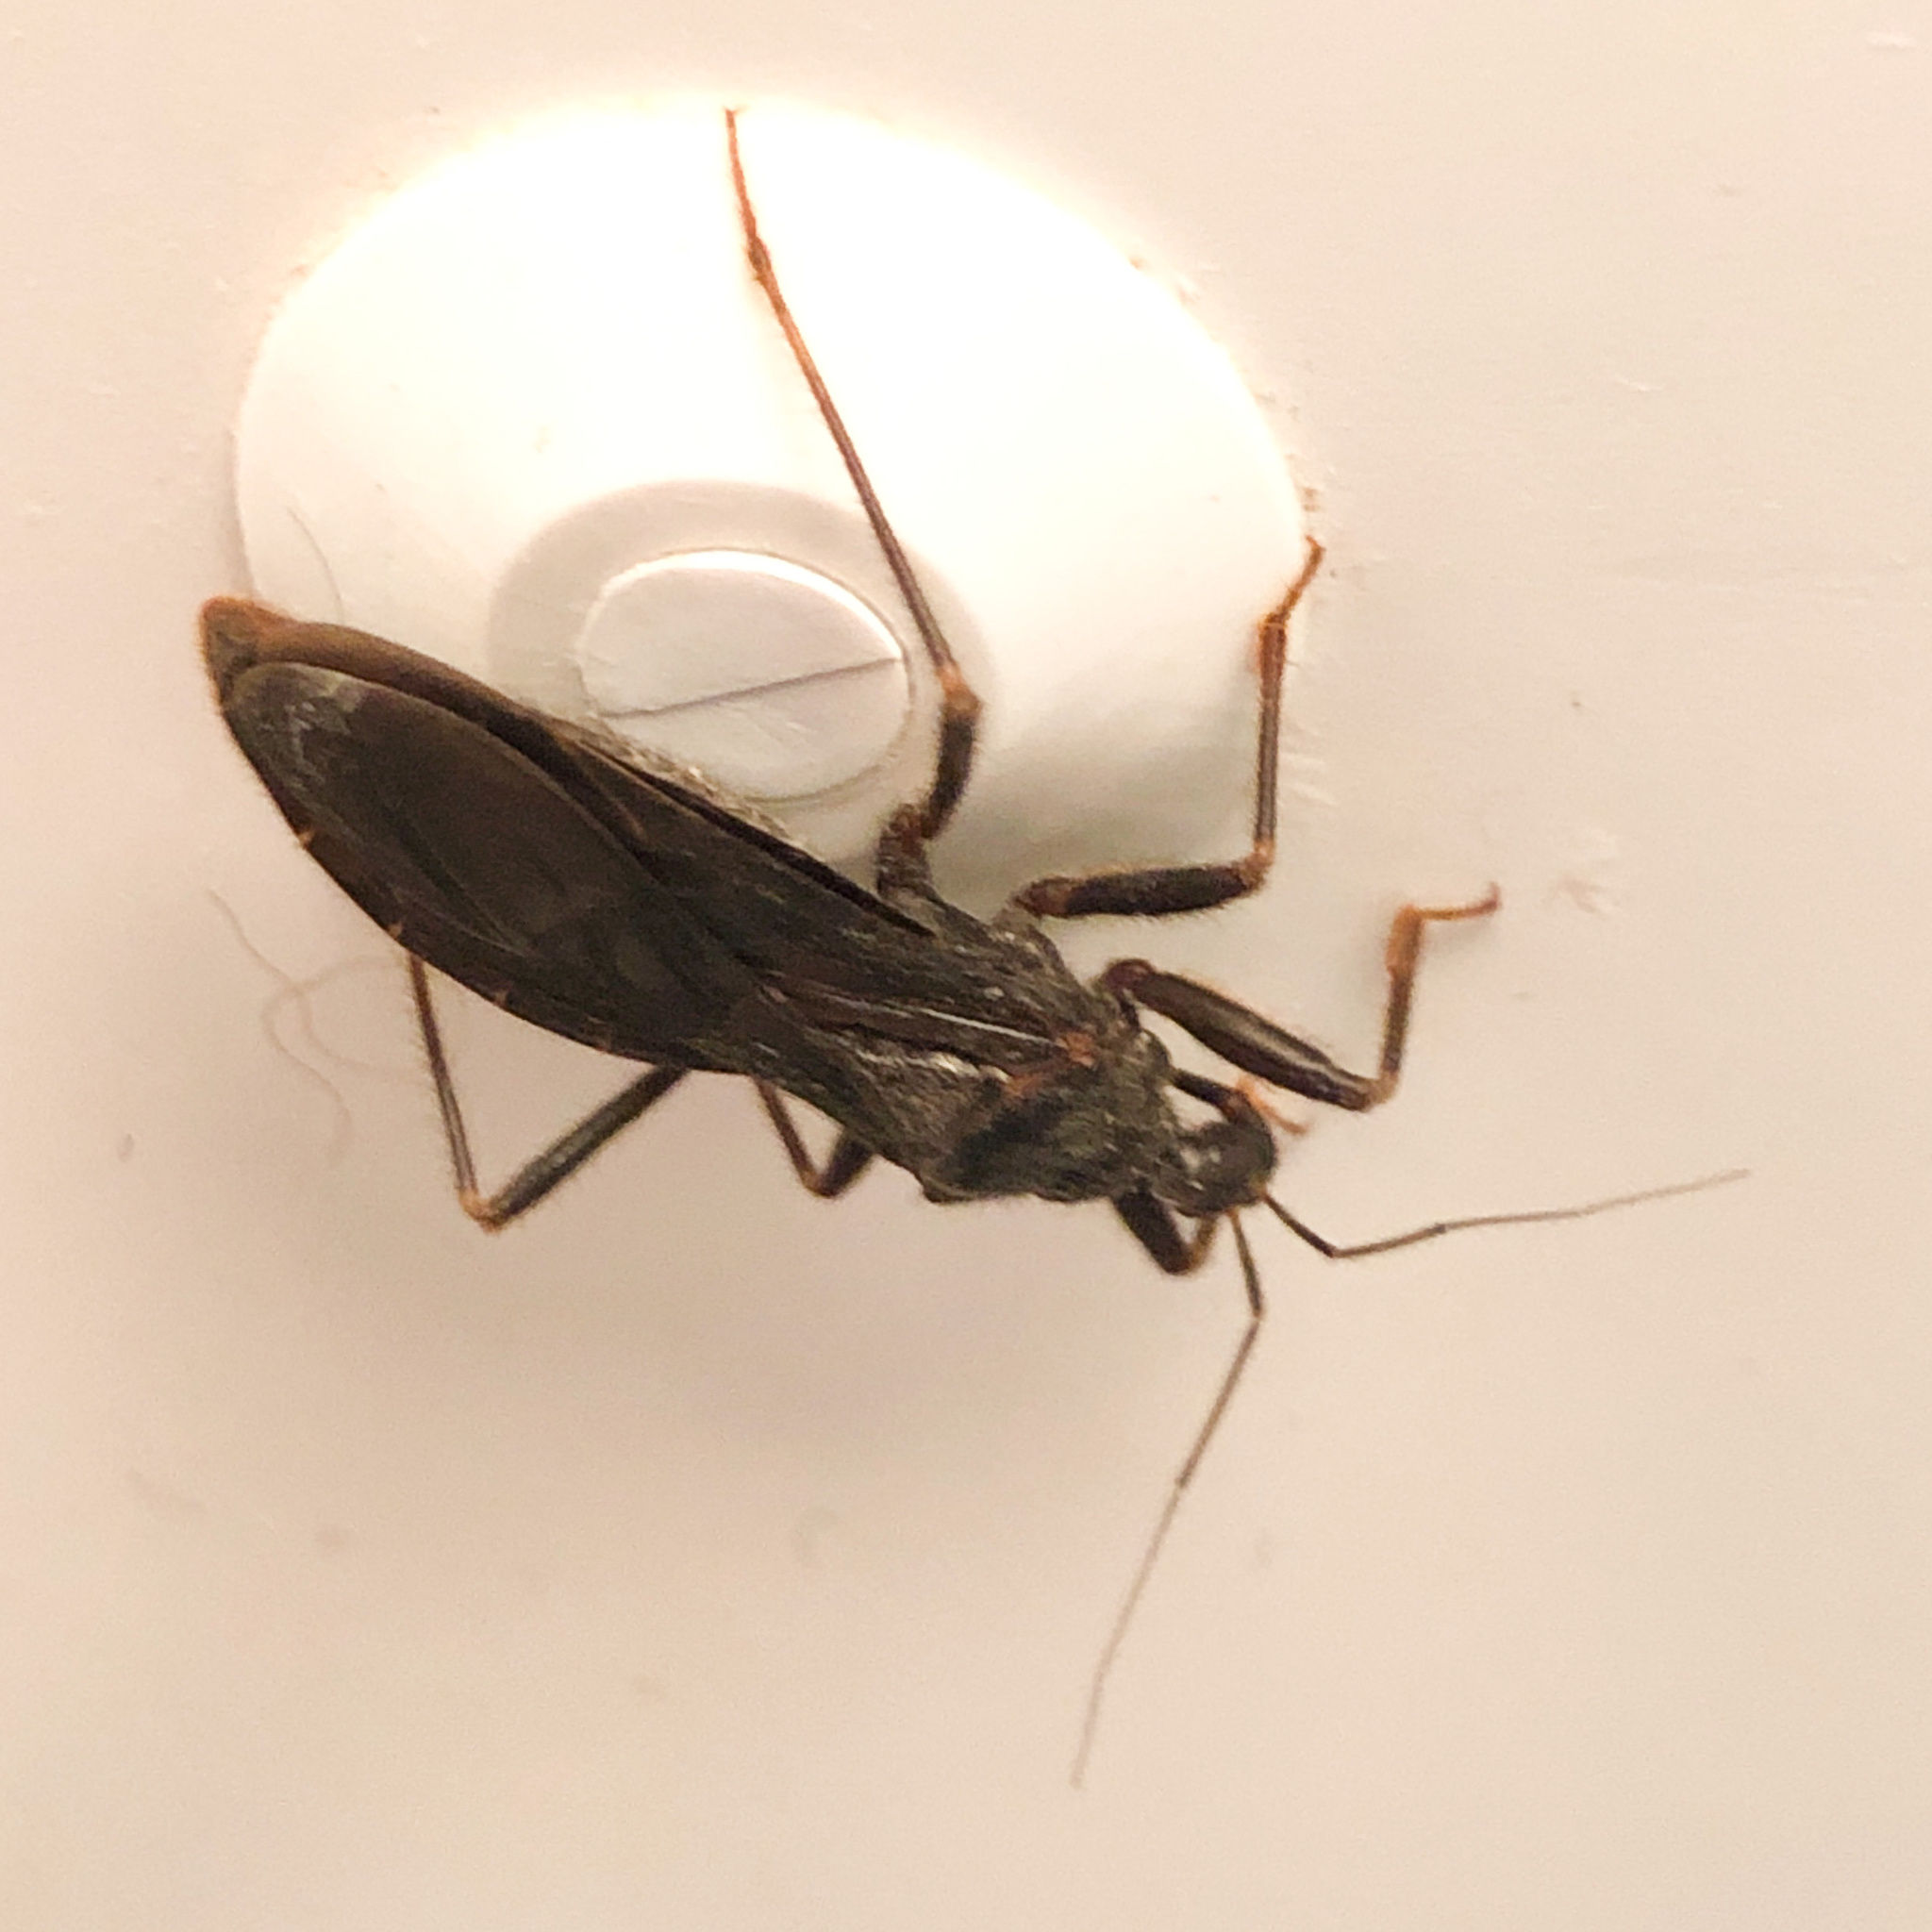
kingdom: Animalia
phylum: Arthropoda
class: Insecta
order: Hemiptera
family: Reduviidae
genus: Reduvius
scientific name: Reduvius personatus
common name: Masked hunter
